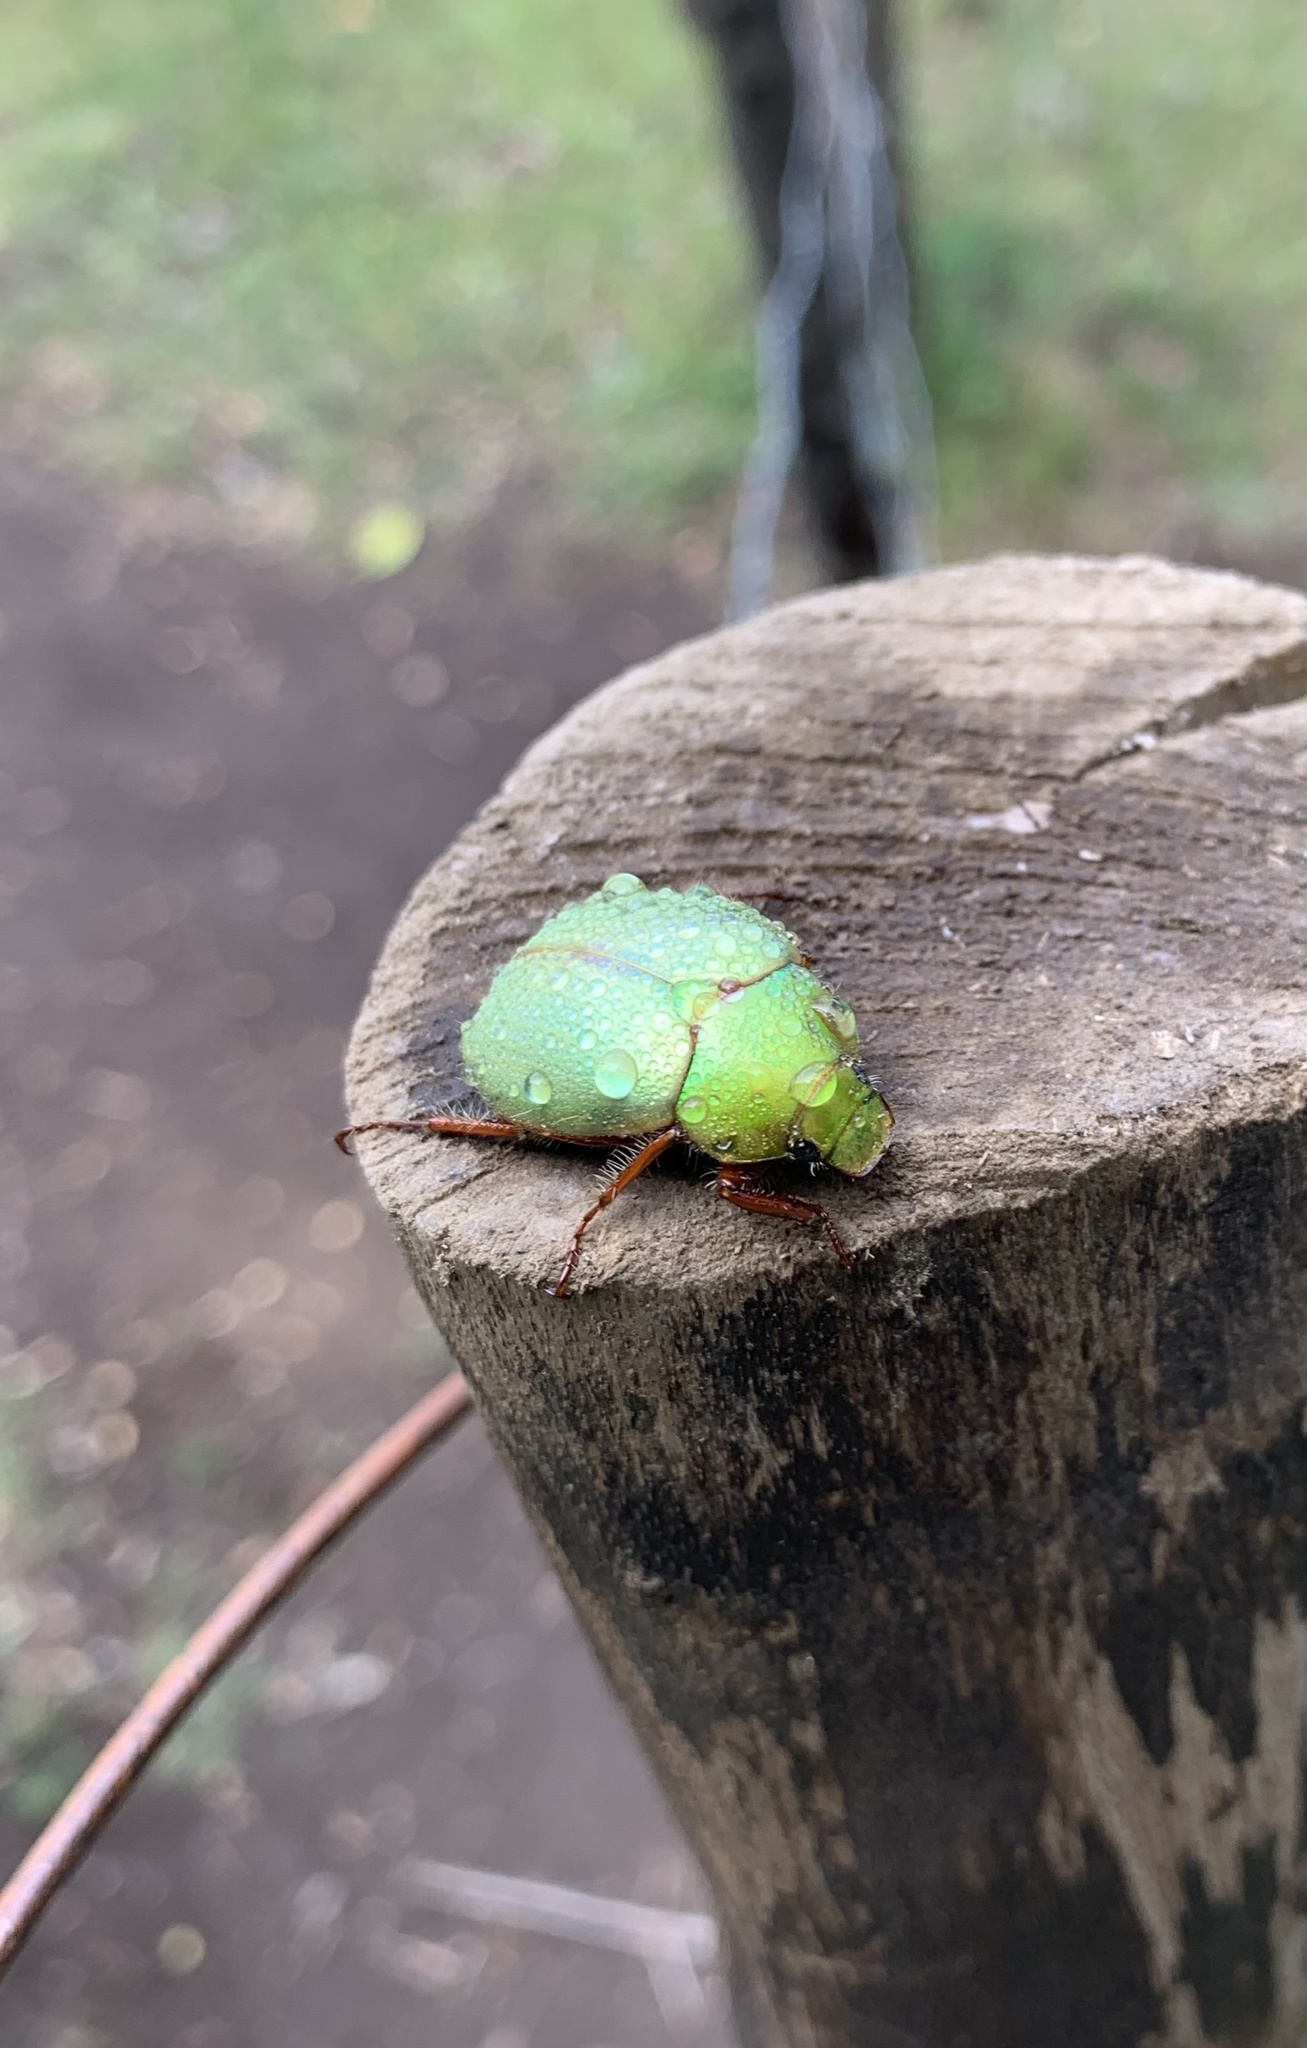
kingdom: Animalia
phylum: Arthropoda
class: Insecta
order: Coleoptera
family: Scarabaeidae
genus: Modialis
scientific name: Modialis prasinella
